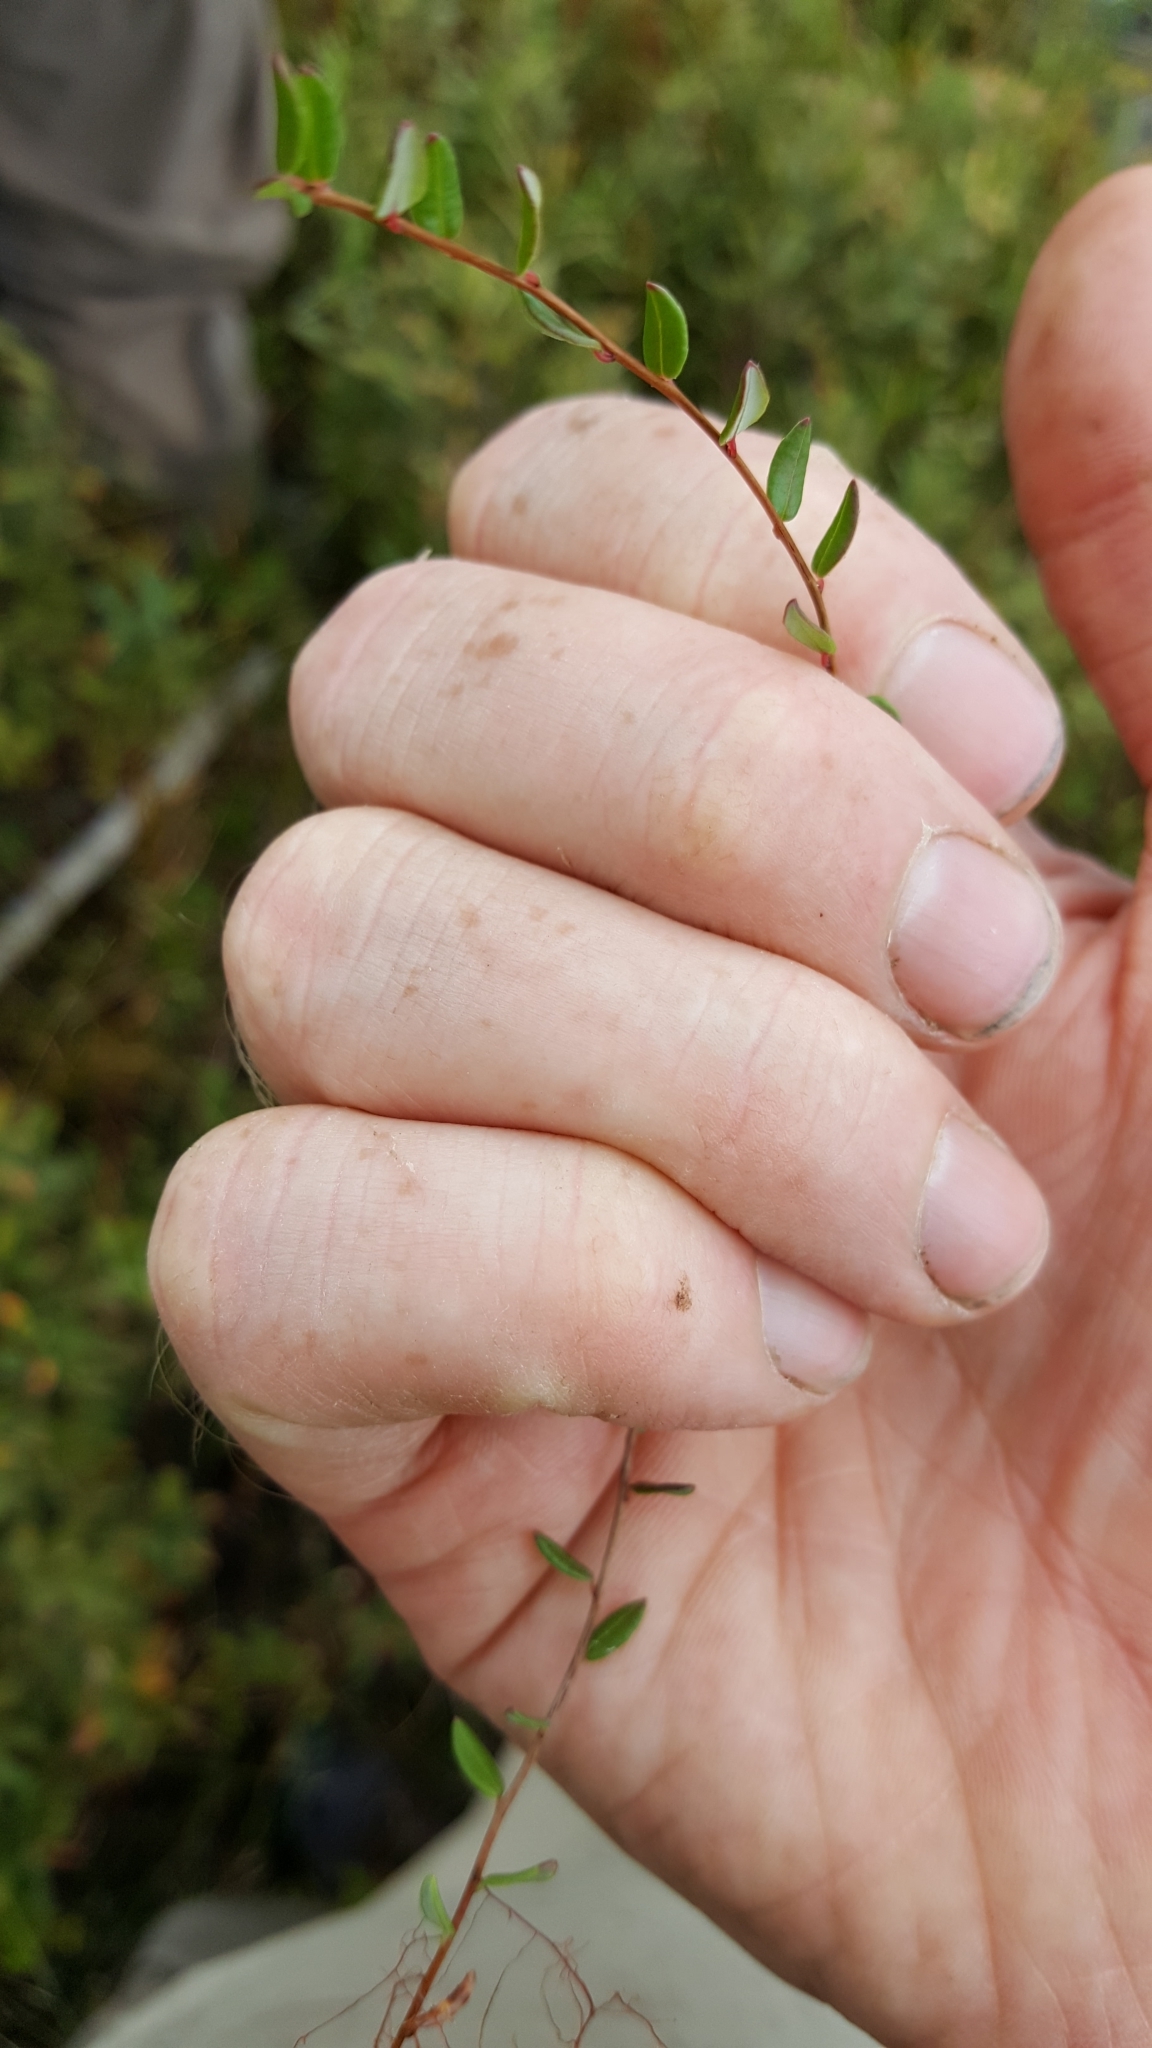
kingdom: Plantae
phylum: Tracheophyta
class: Magnoliopsida
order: Ericales
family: Ericaceae
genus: Vaccinium
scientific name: Vaccinium oxycoccos
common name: Cranberry
